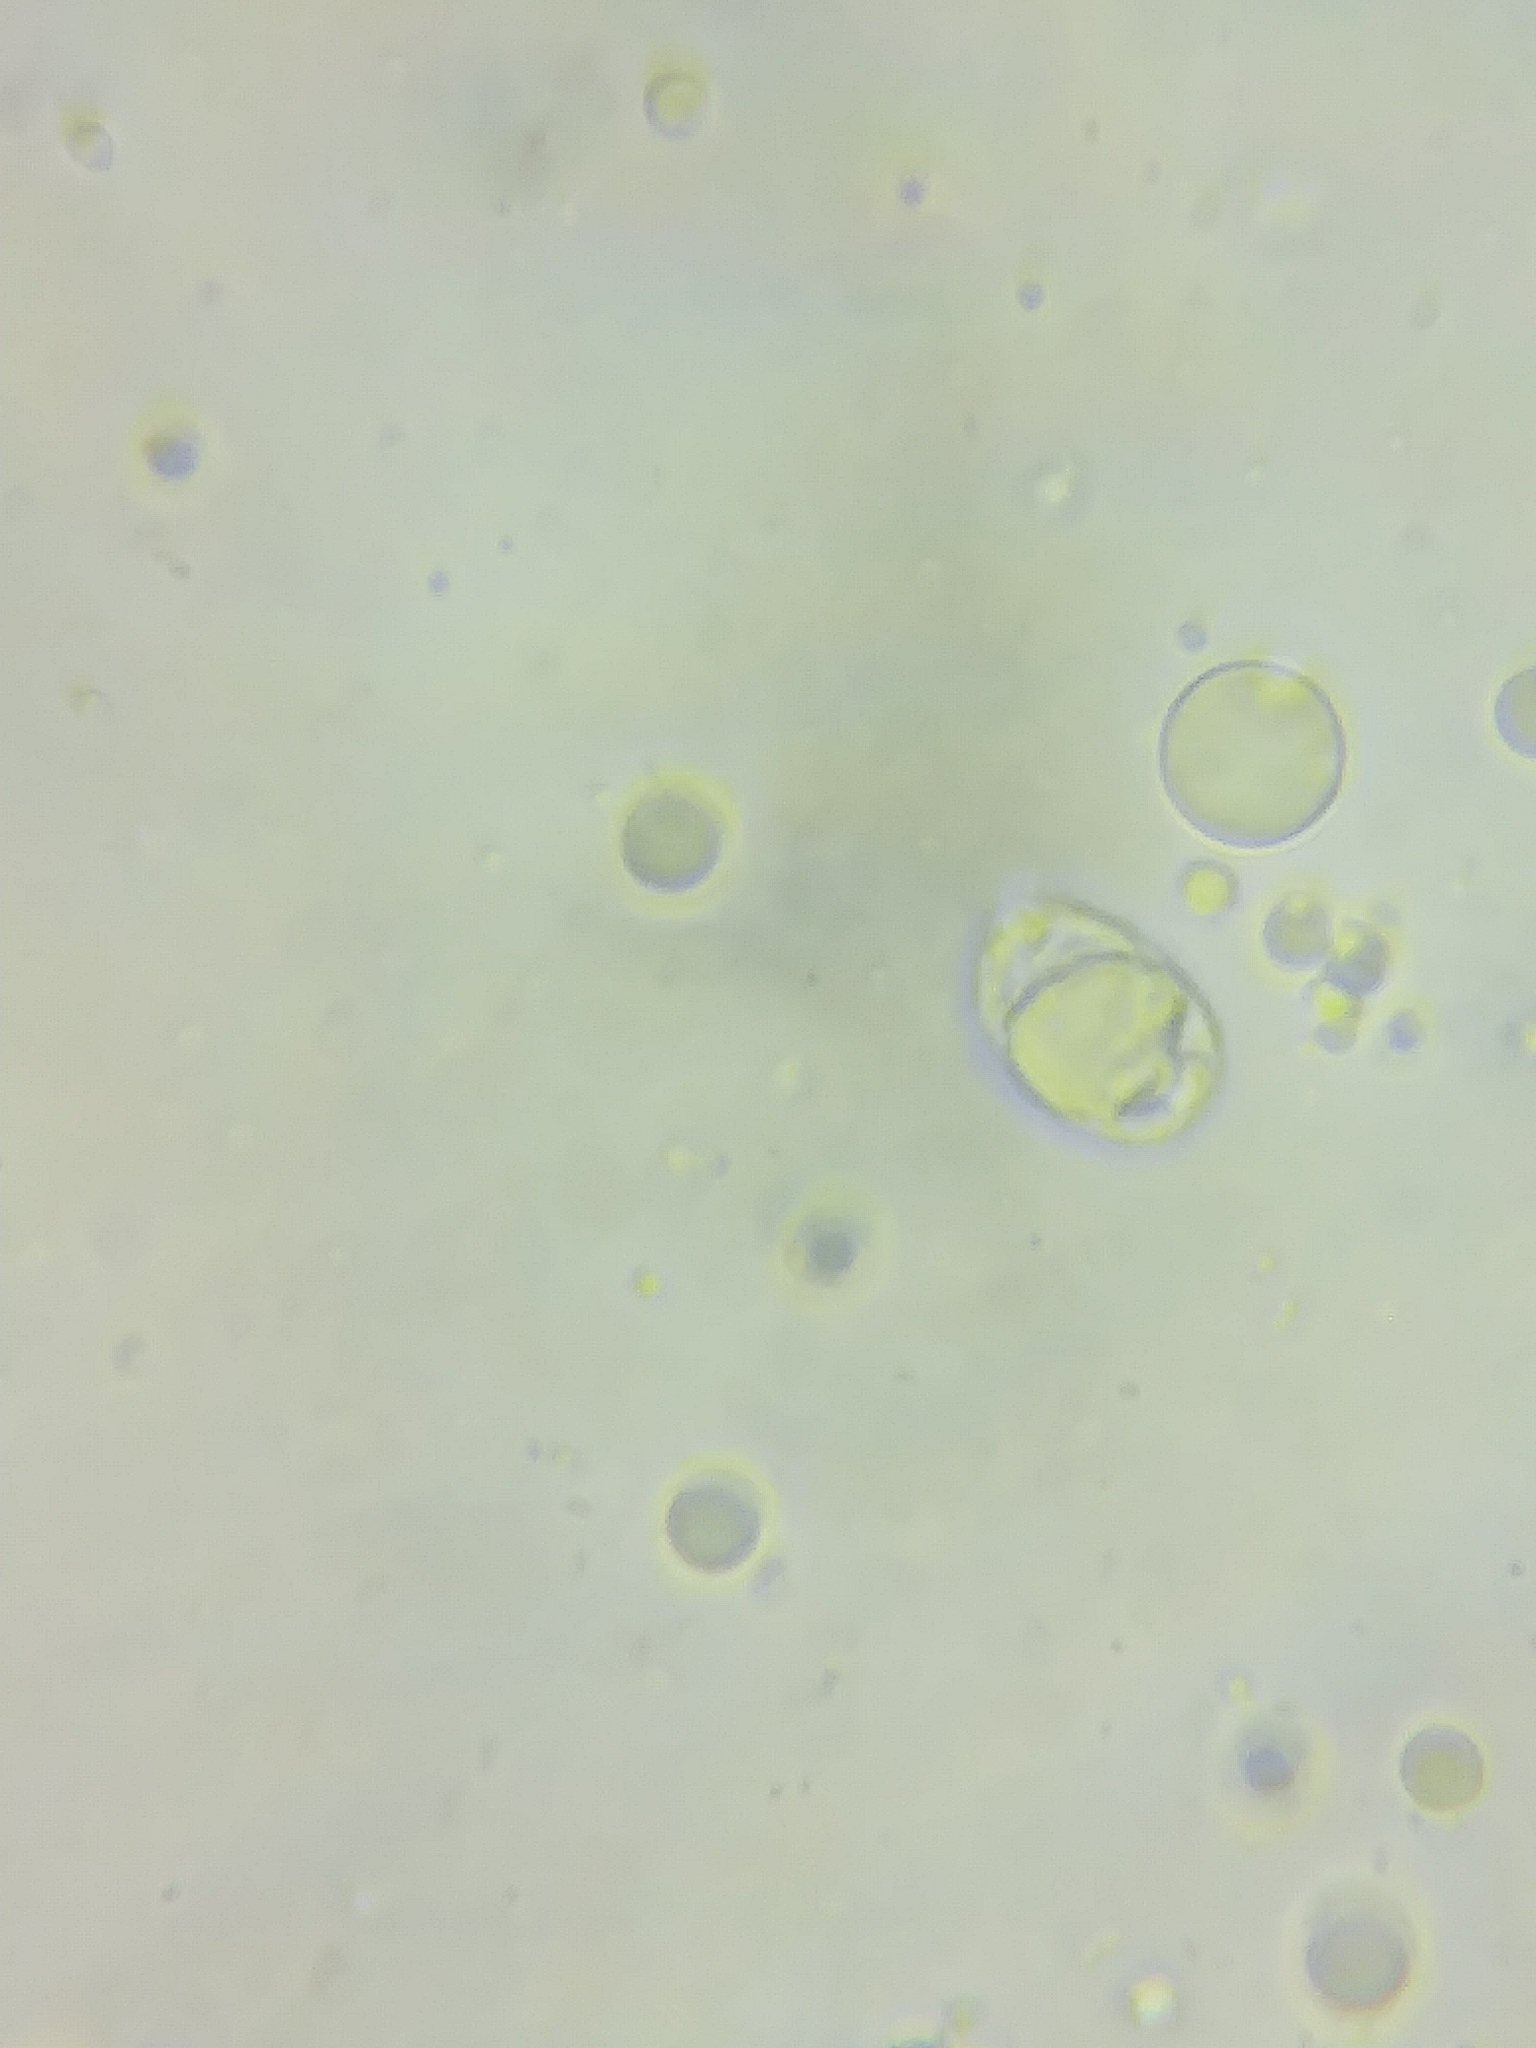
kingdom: Fungi
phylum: Basidiomycota
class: Agaricomycetes
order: Agaricales
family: Amanitaceae
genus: Amanita
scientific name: Amanita multisquamosa
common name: Small funnel-veil amanita
